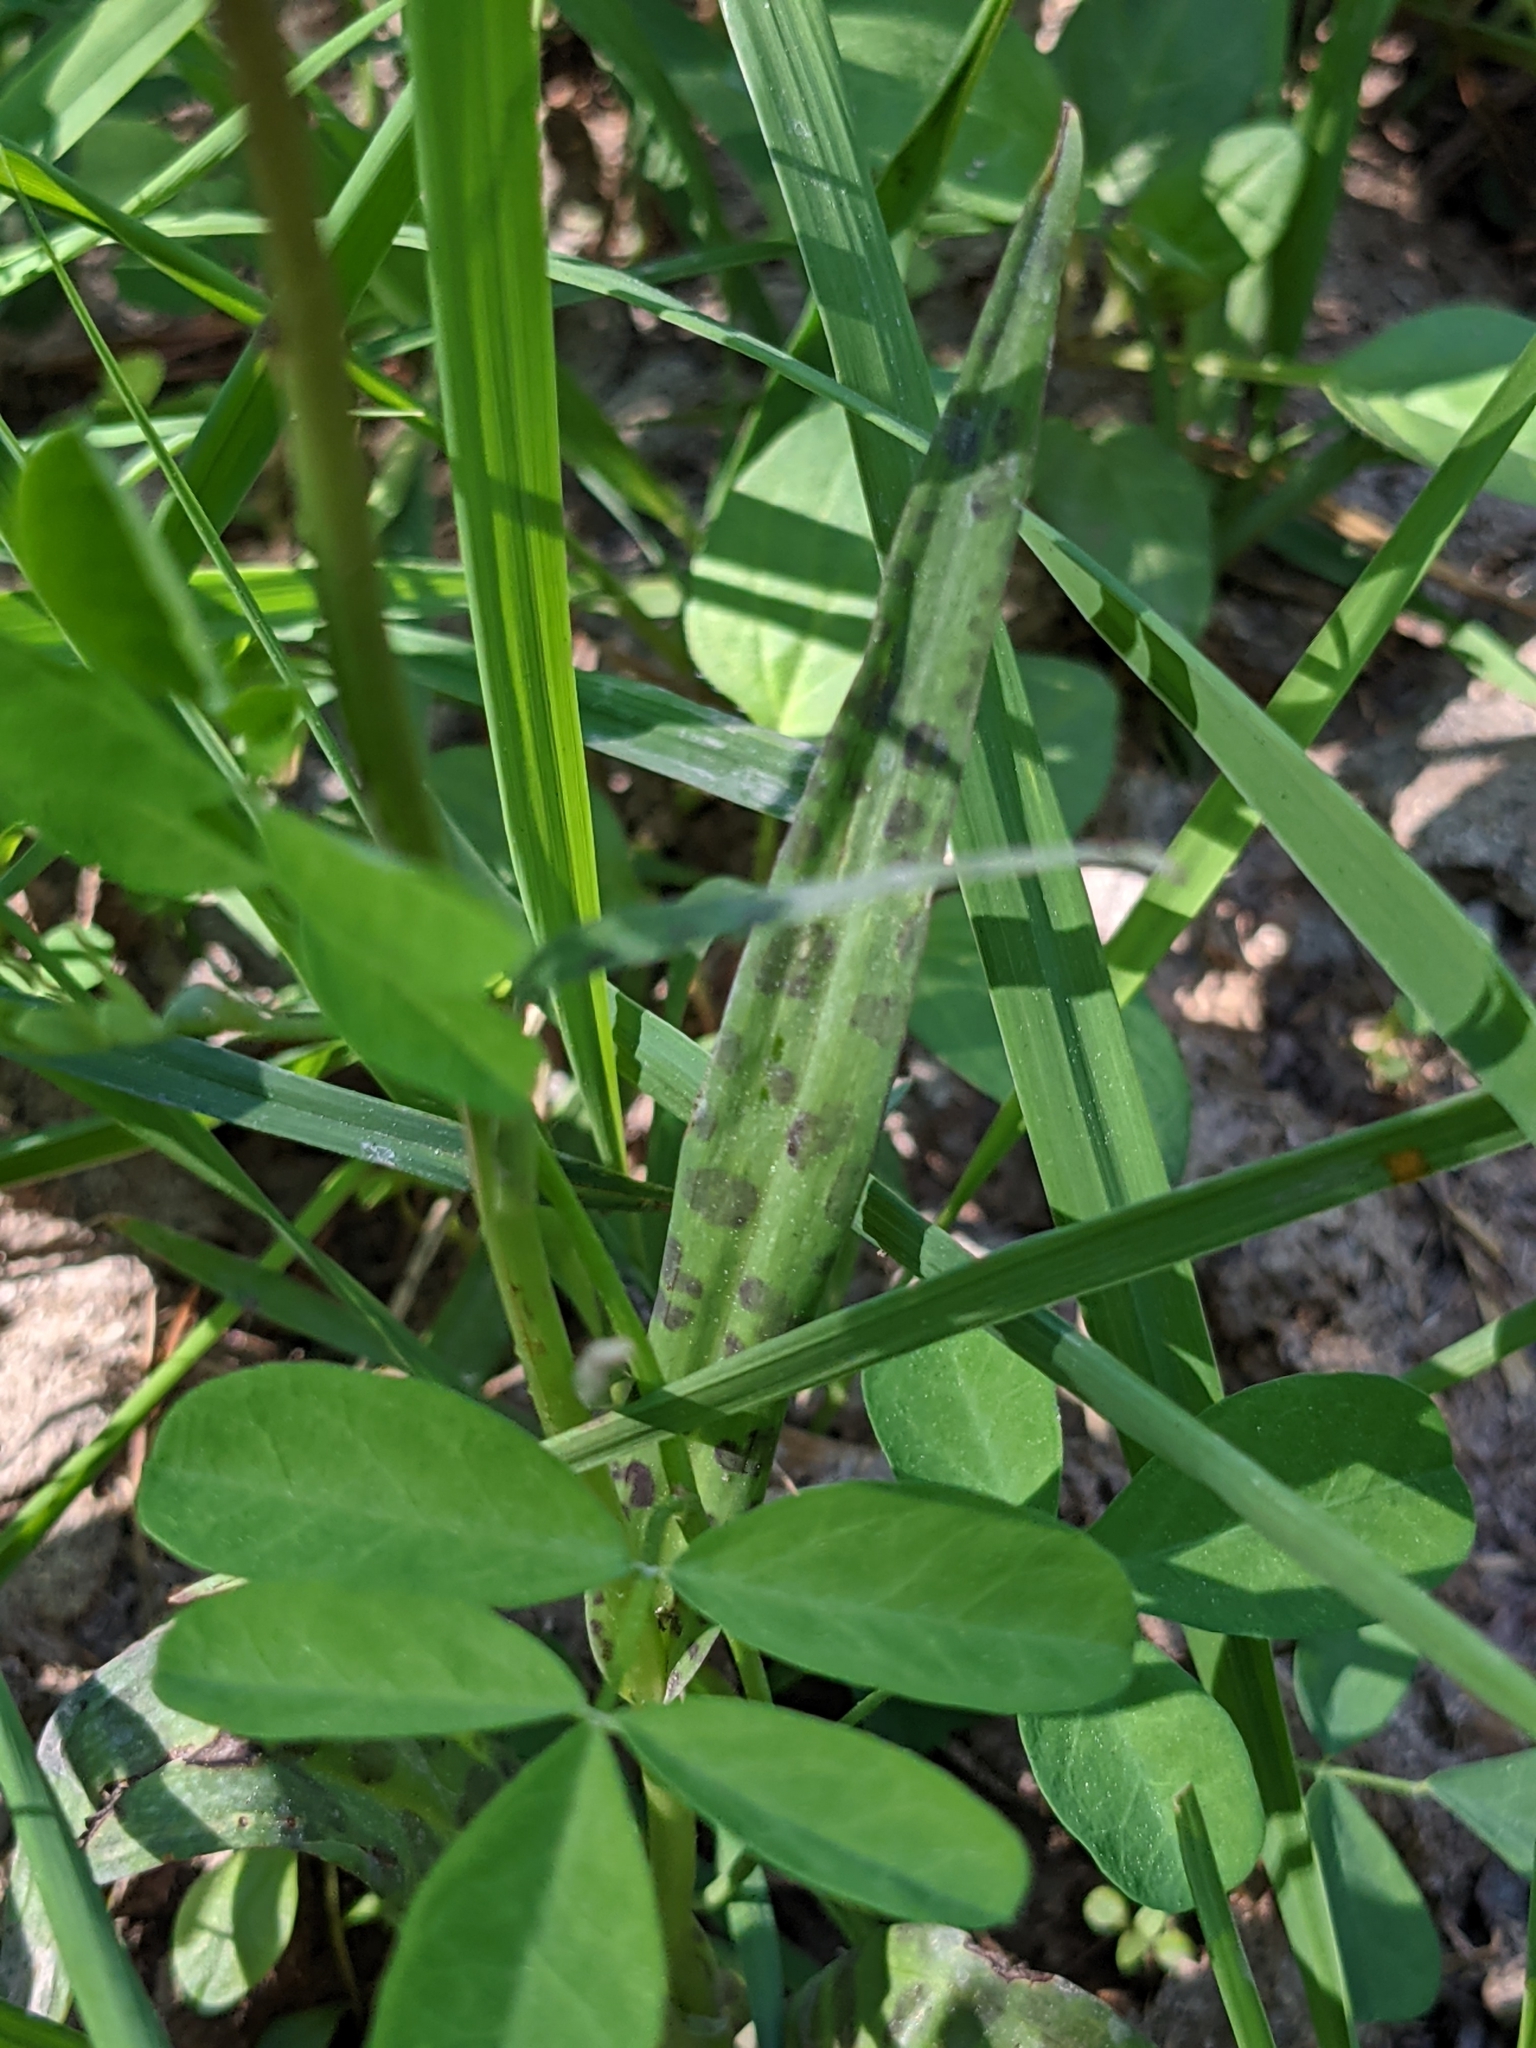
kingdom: Plantae
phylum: Tracheophyta
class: Liliopsida
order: Asparagales
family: Orchidaceae
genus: Dactylorhiza
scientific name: Dactylorhiza maculata
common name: Heath spotted-orchid
